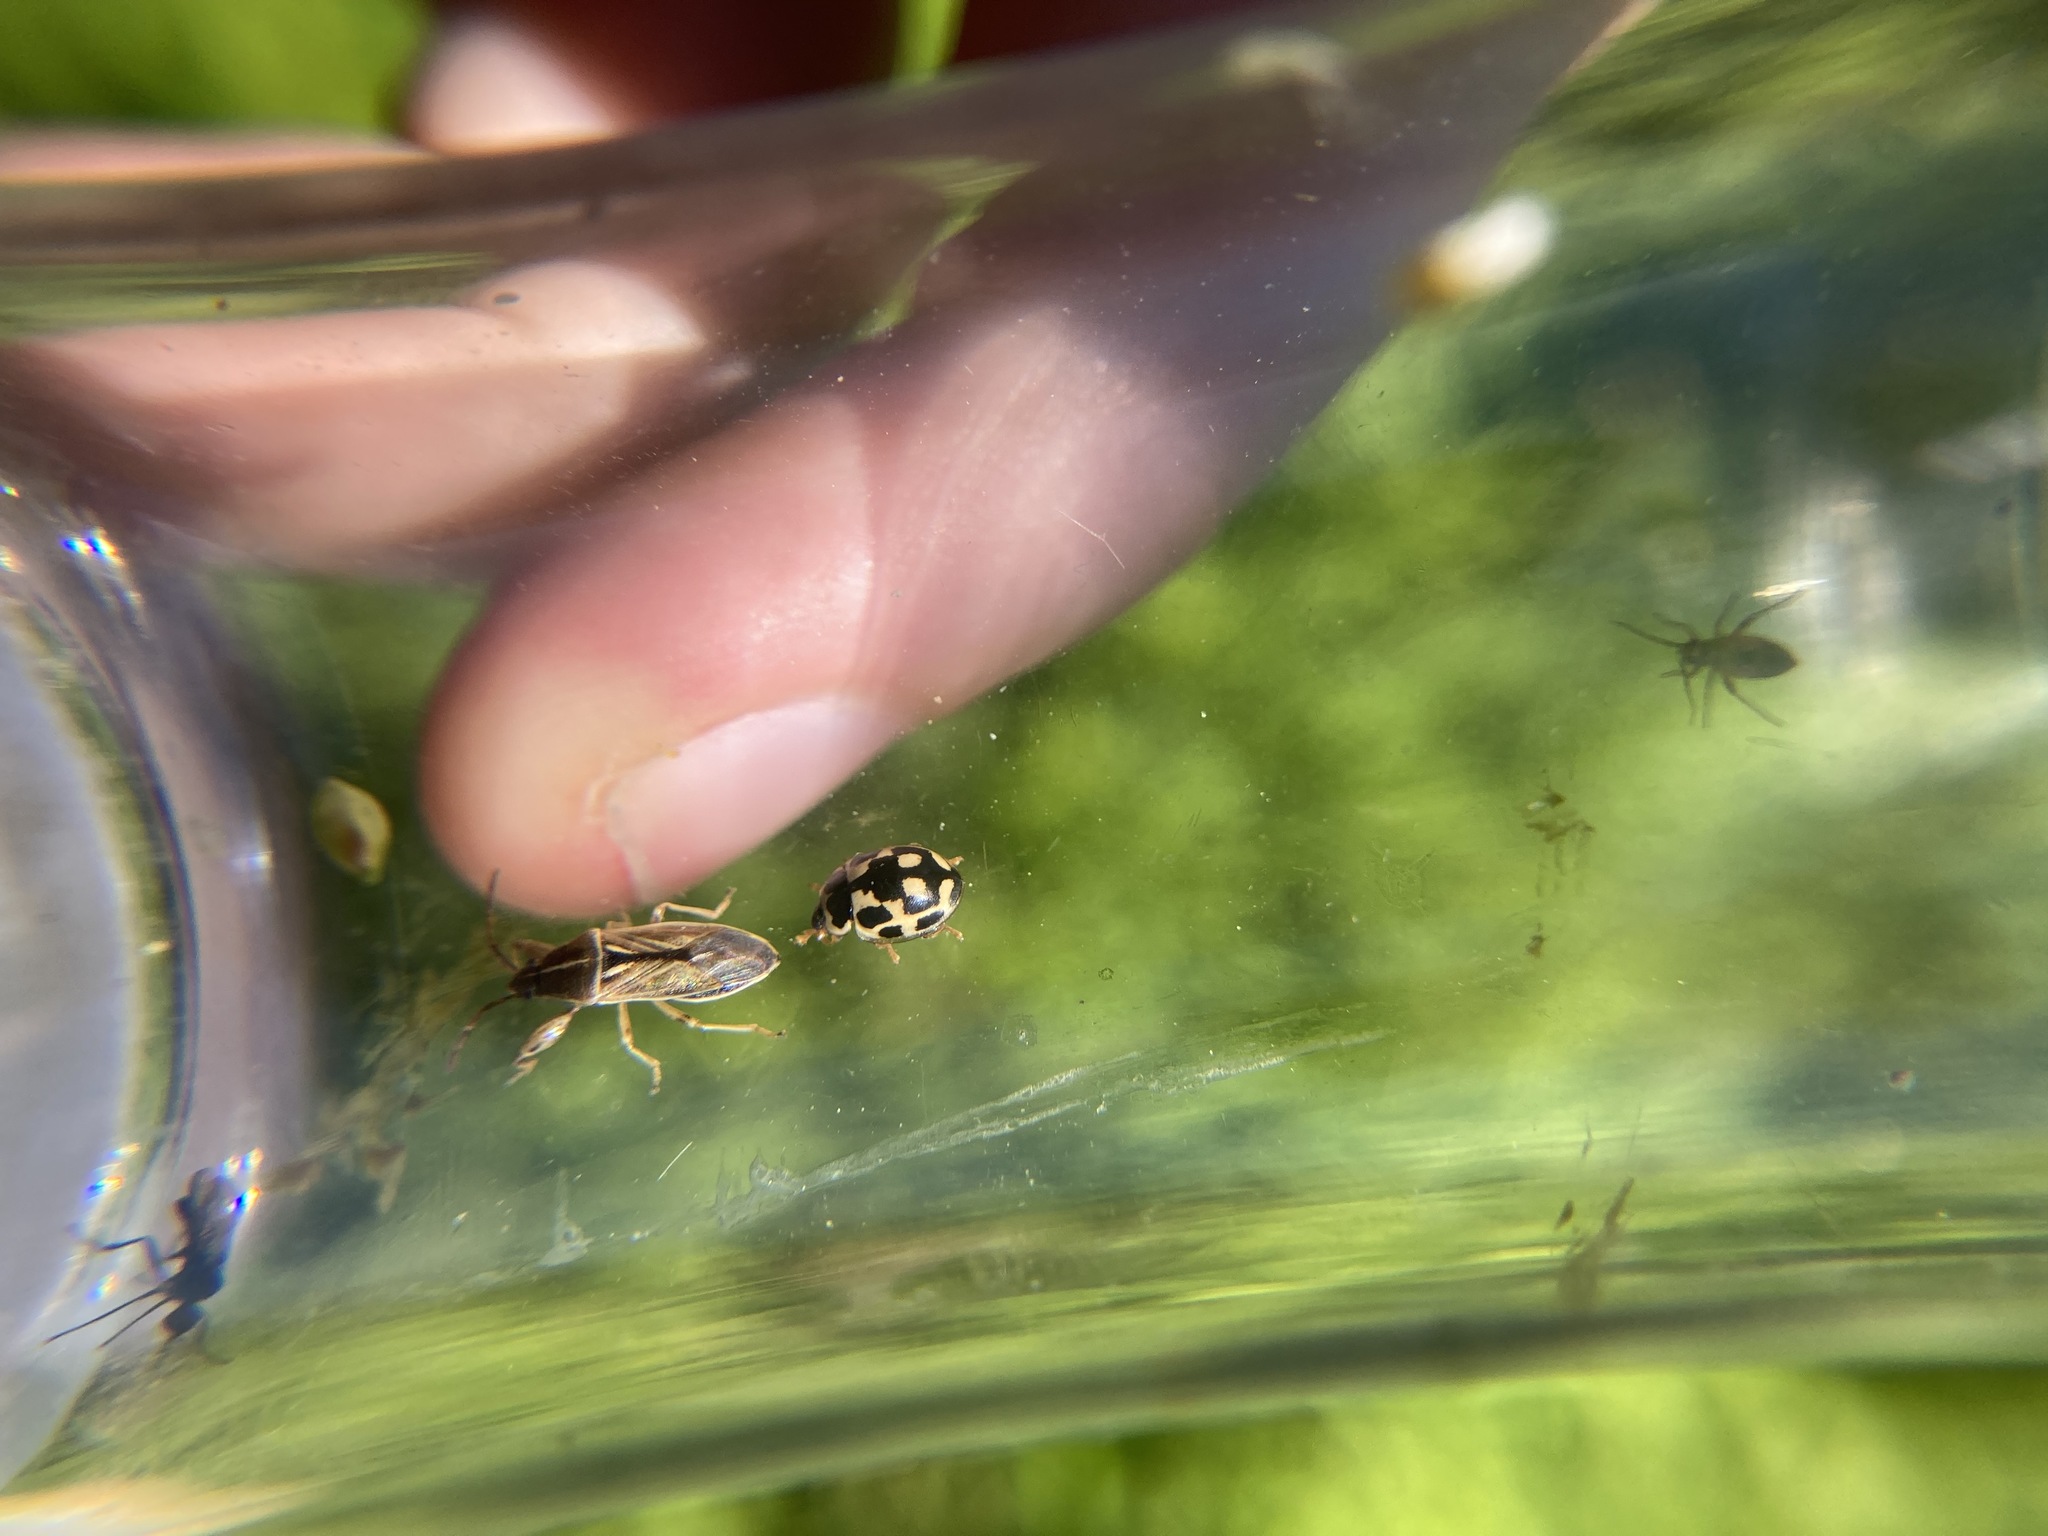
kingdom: Animalia
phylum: Arthropoda
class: Insecta
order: Coleoptera
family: Coccinellidae
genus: Propylaea
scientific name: Propylaea quatuordecimpunctata
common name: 14-spotted ladybird beetle
